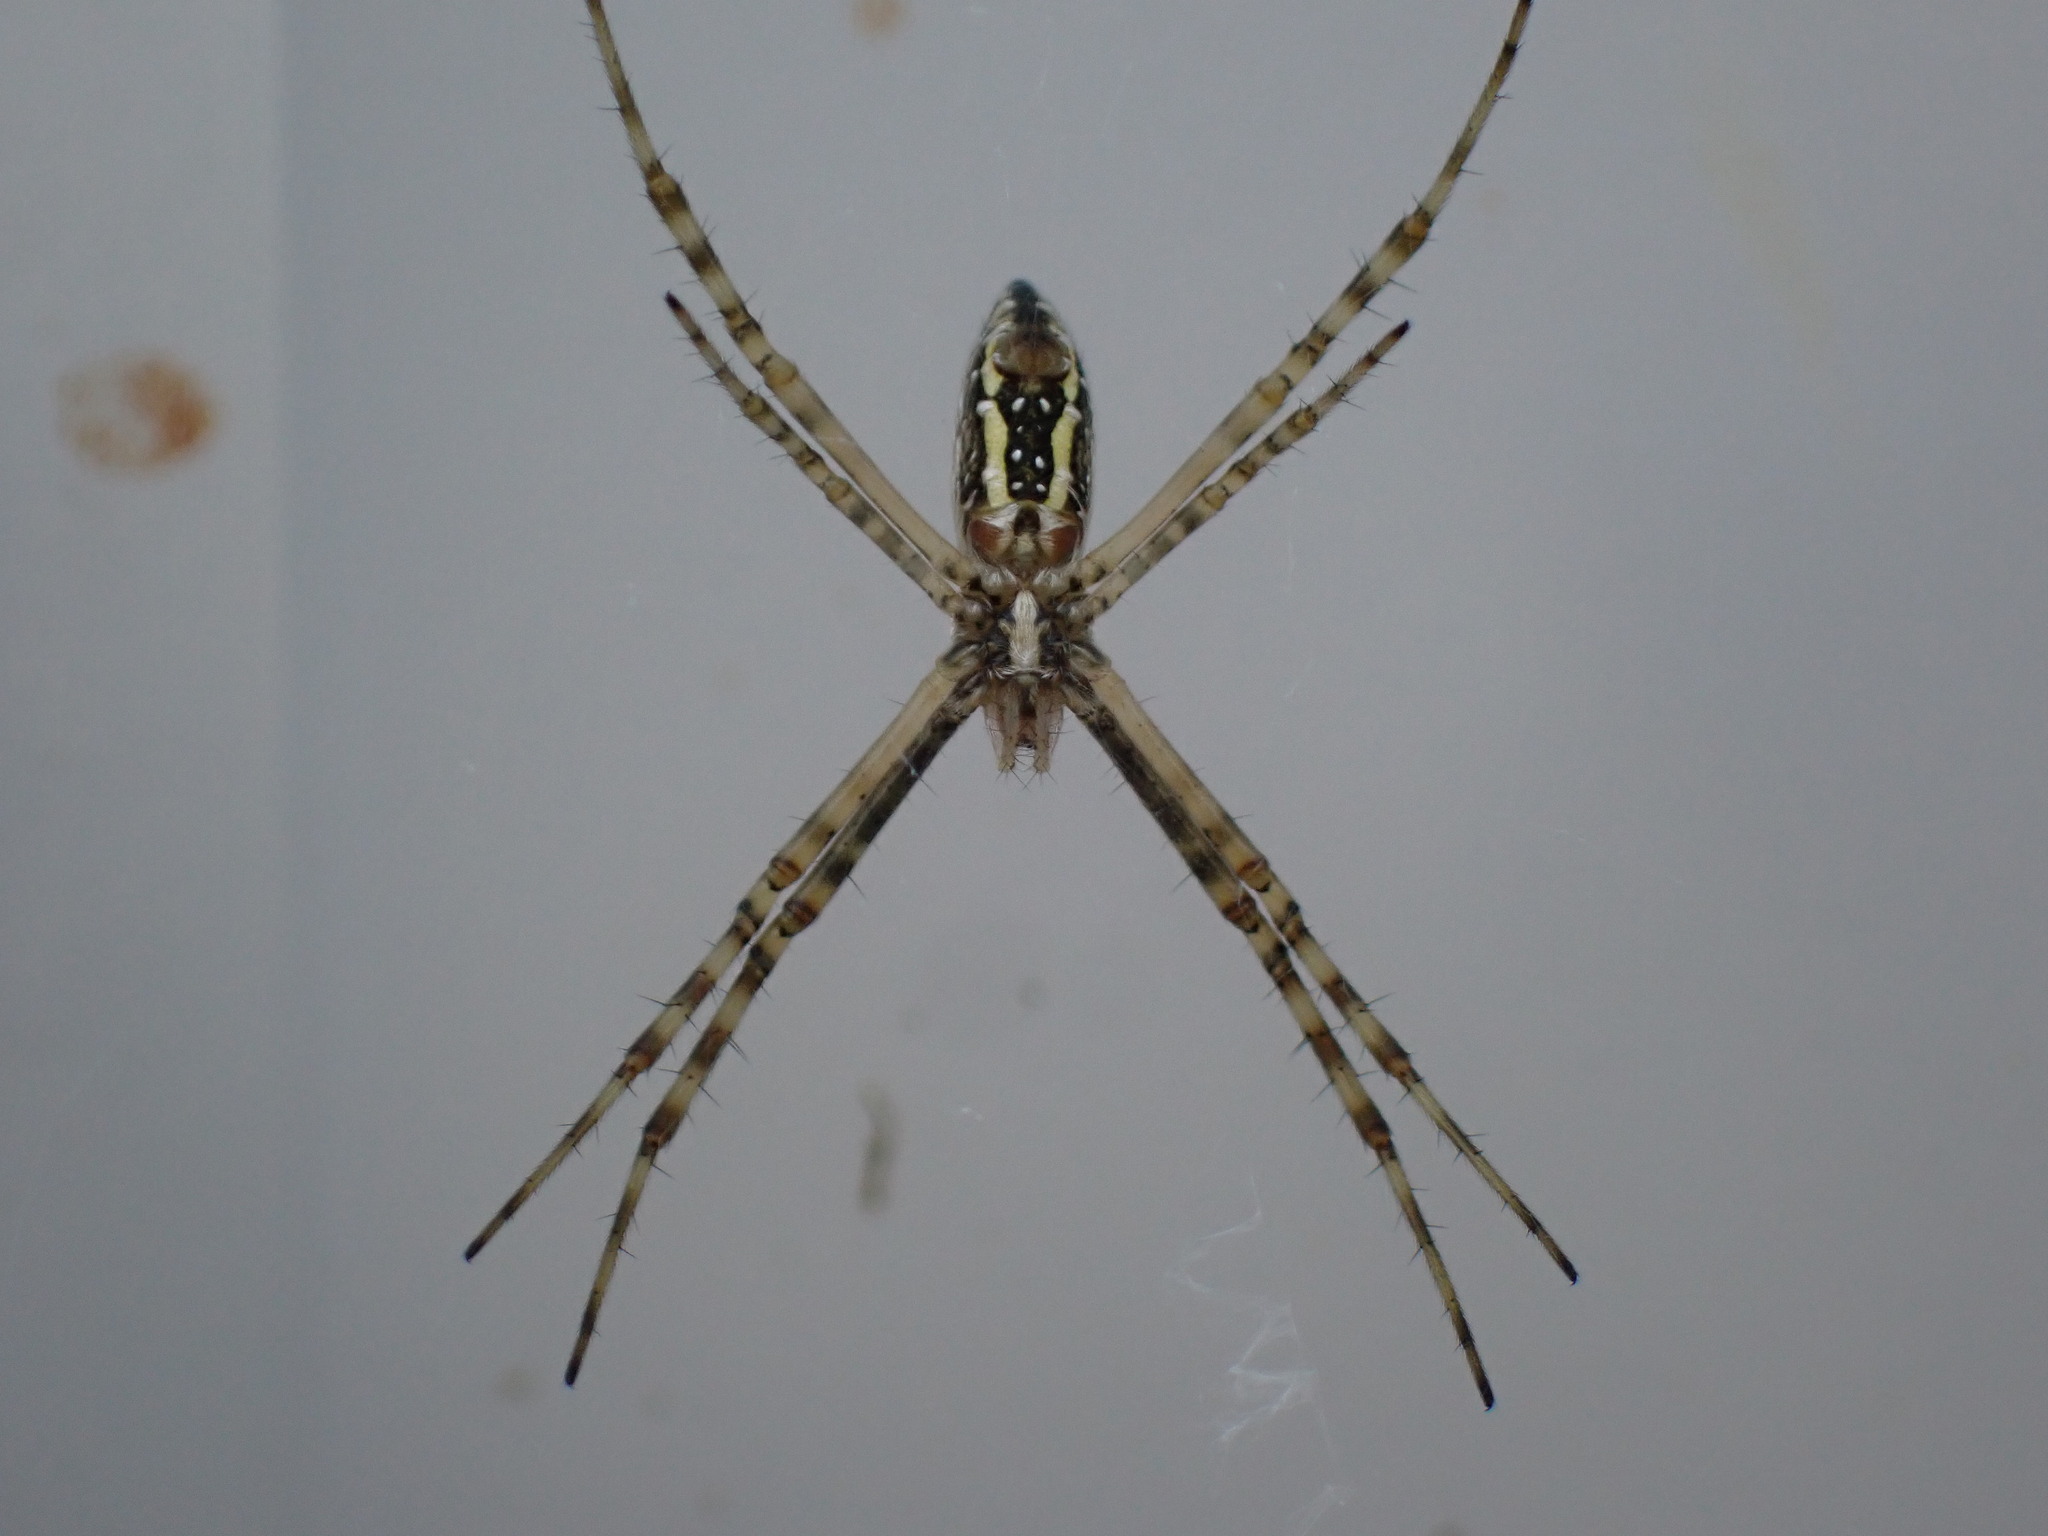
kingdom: Animalia
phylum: Arthropoda
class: Arachnida
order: Araneae
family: Araneidae
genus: Argiope
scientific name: Argiope trifasciata
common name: Banded garden spider
